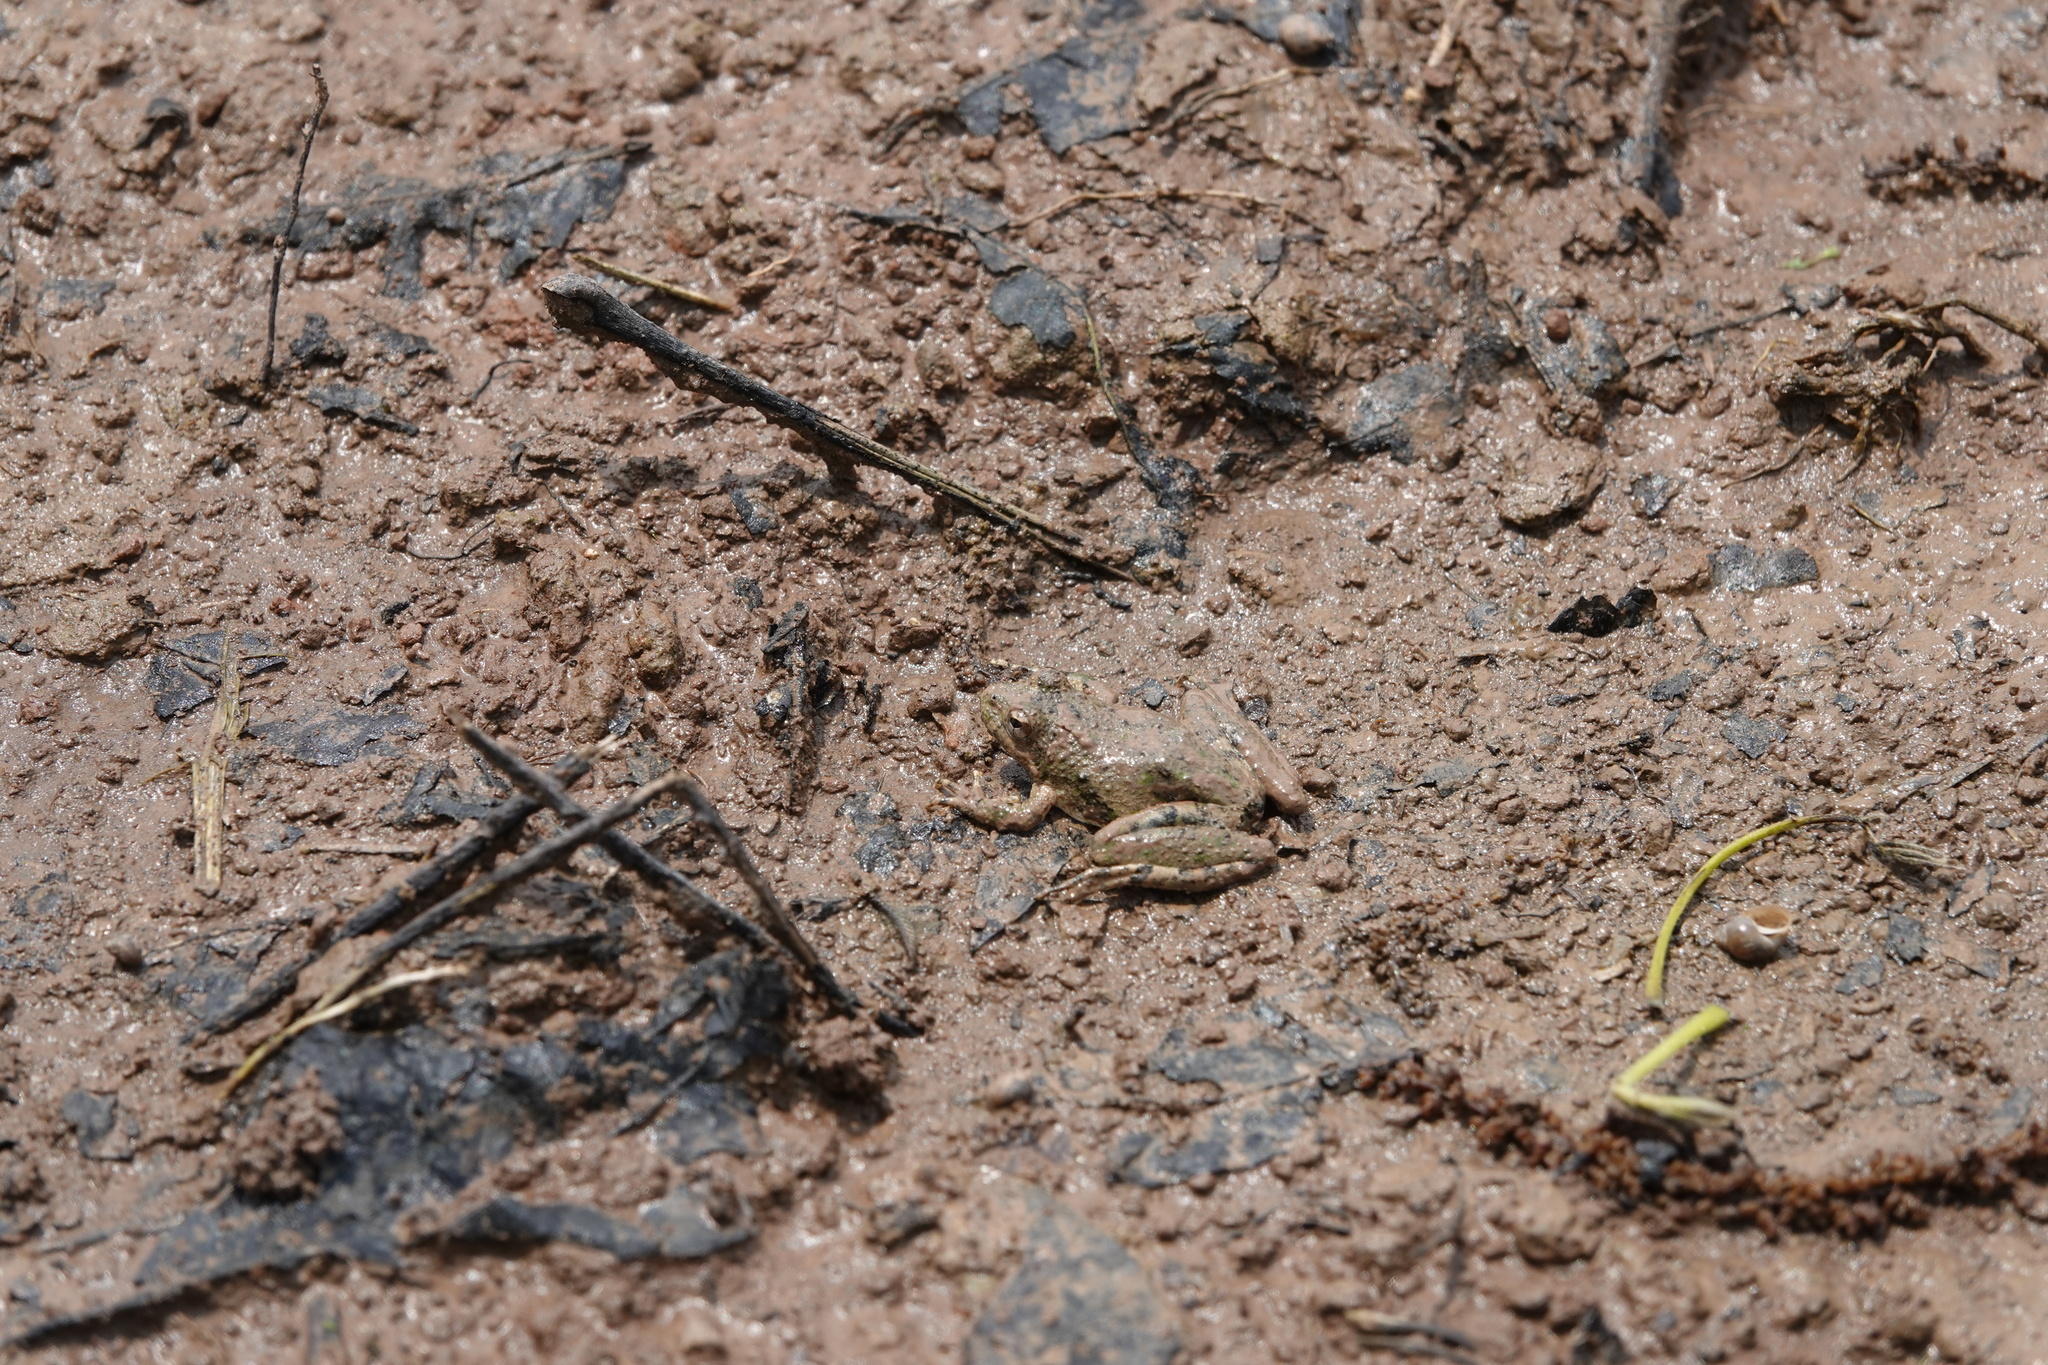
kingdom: Animalia
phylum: Chordata
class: Amphibia
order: Anura
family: Hylidae
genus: Acris
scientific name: Acris blanchardi
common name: Blanchard's cricket frog
